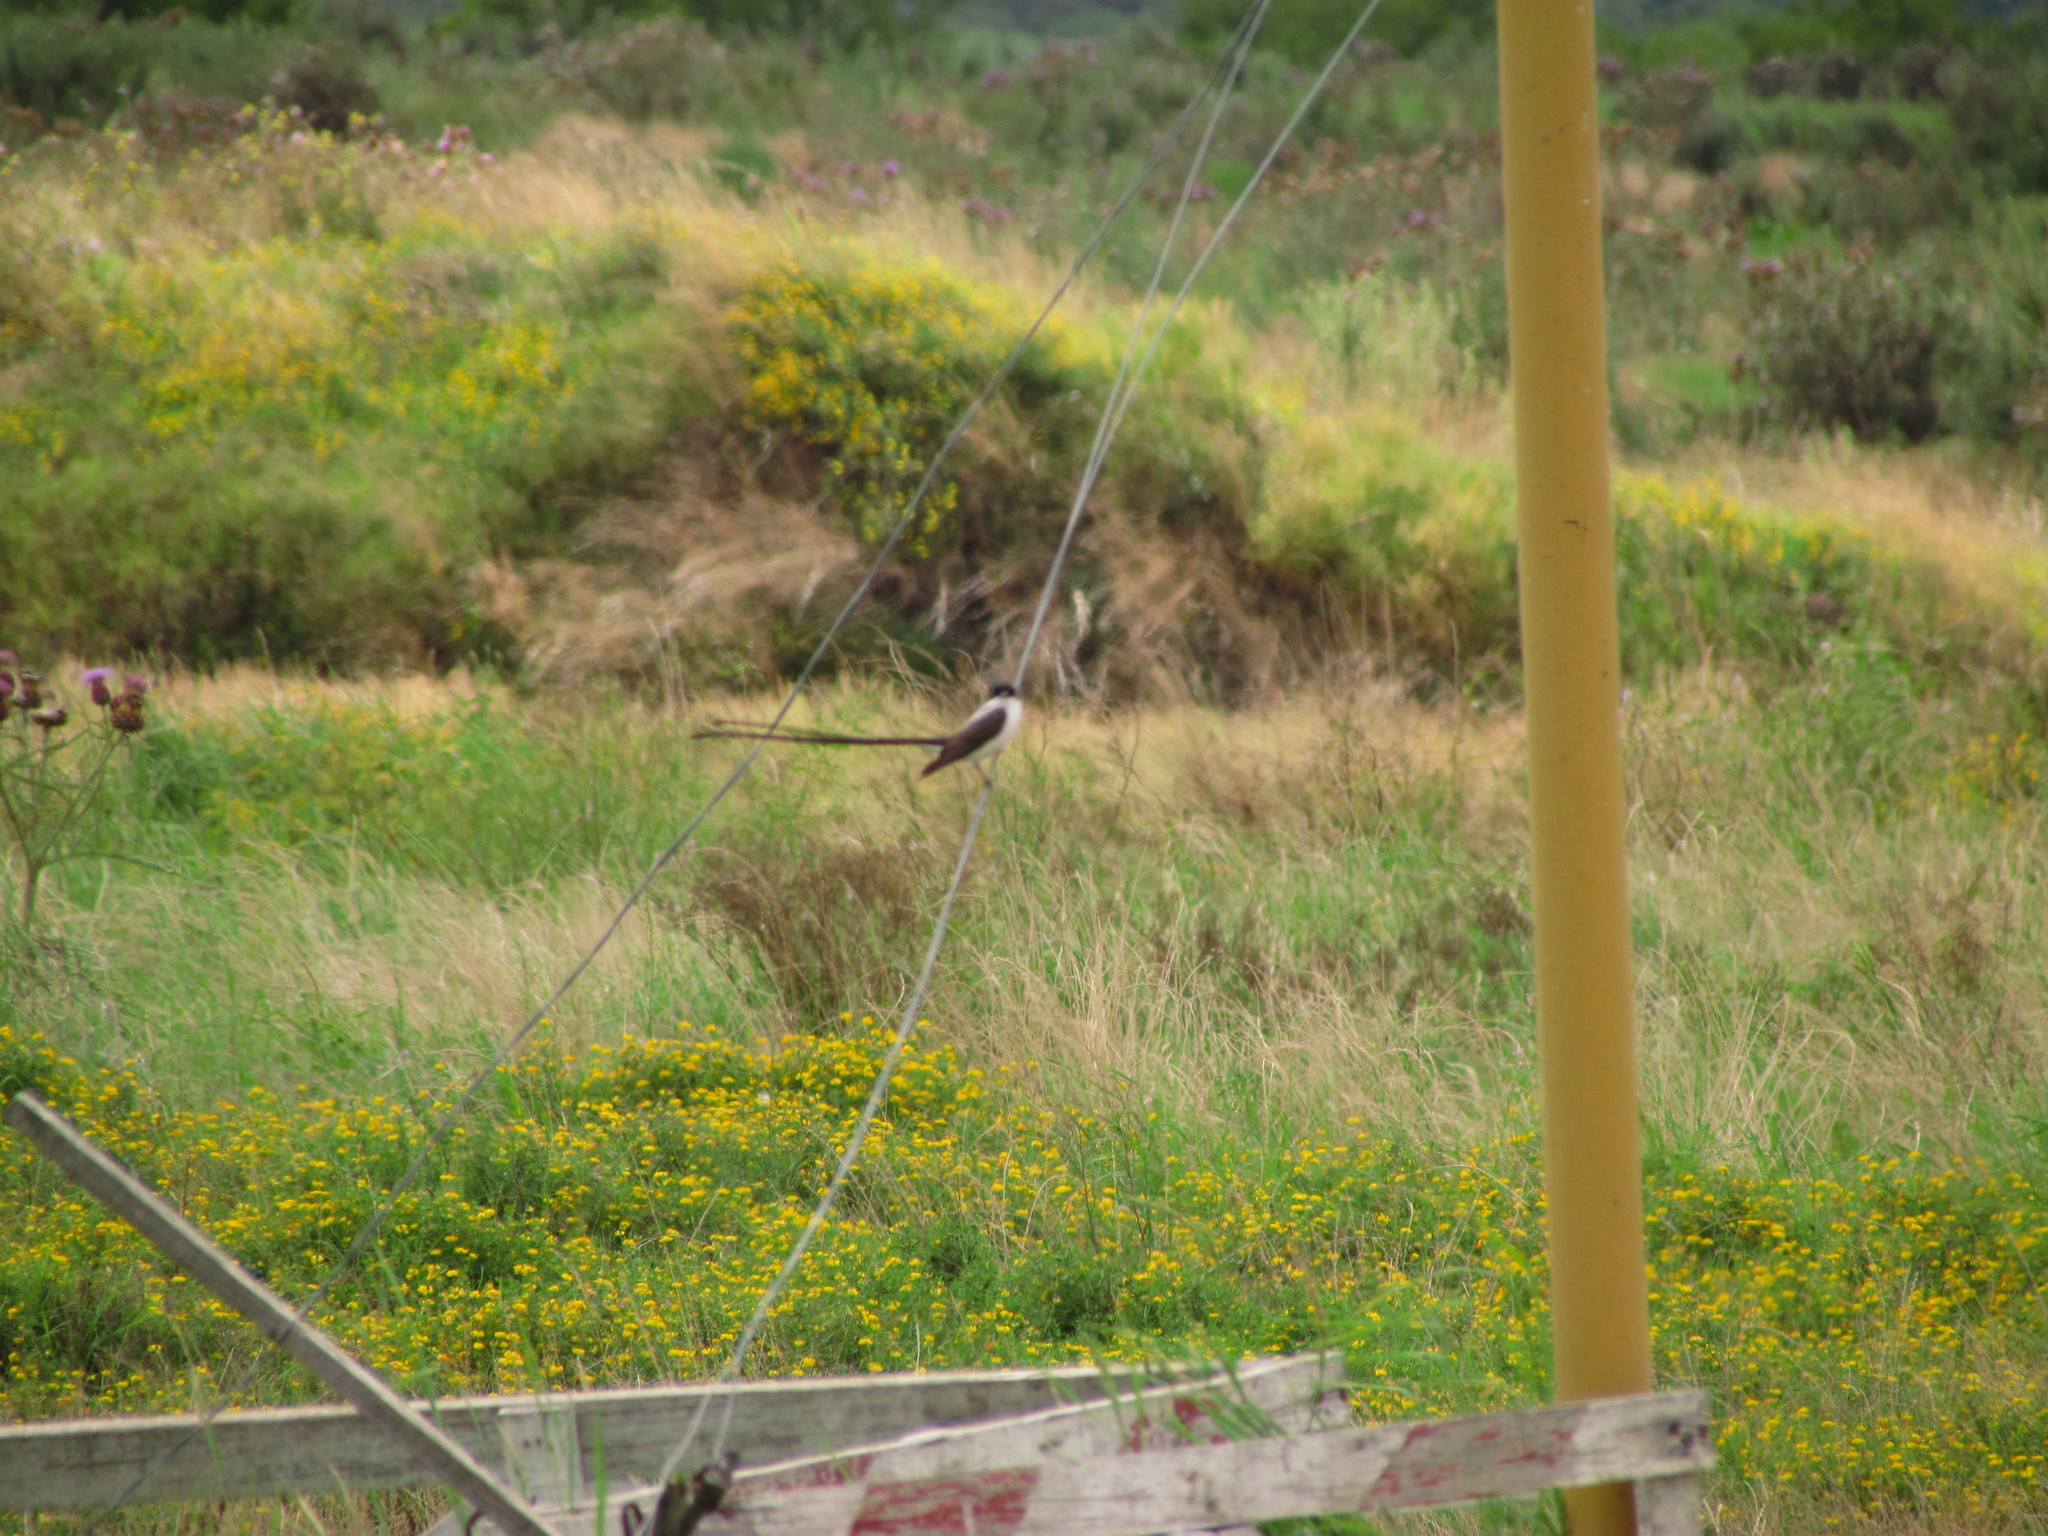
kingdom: Animalia
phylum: Chordata
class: Aves
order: Passeriformes
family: Tyrannidae
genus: Tyrannus
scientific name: Tyrannus savana
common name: Fork-tailed flycatcher
